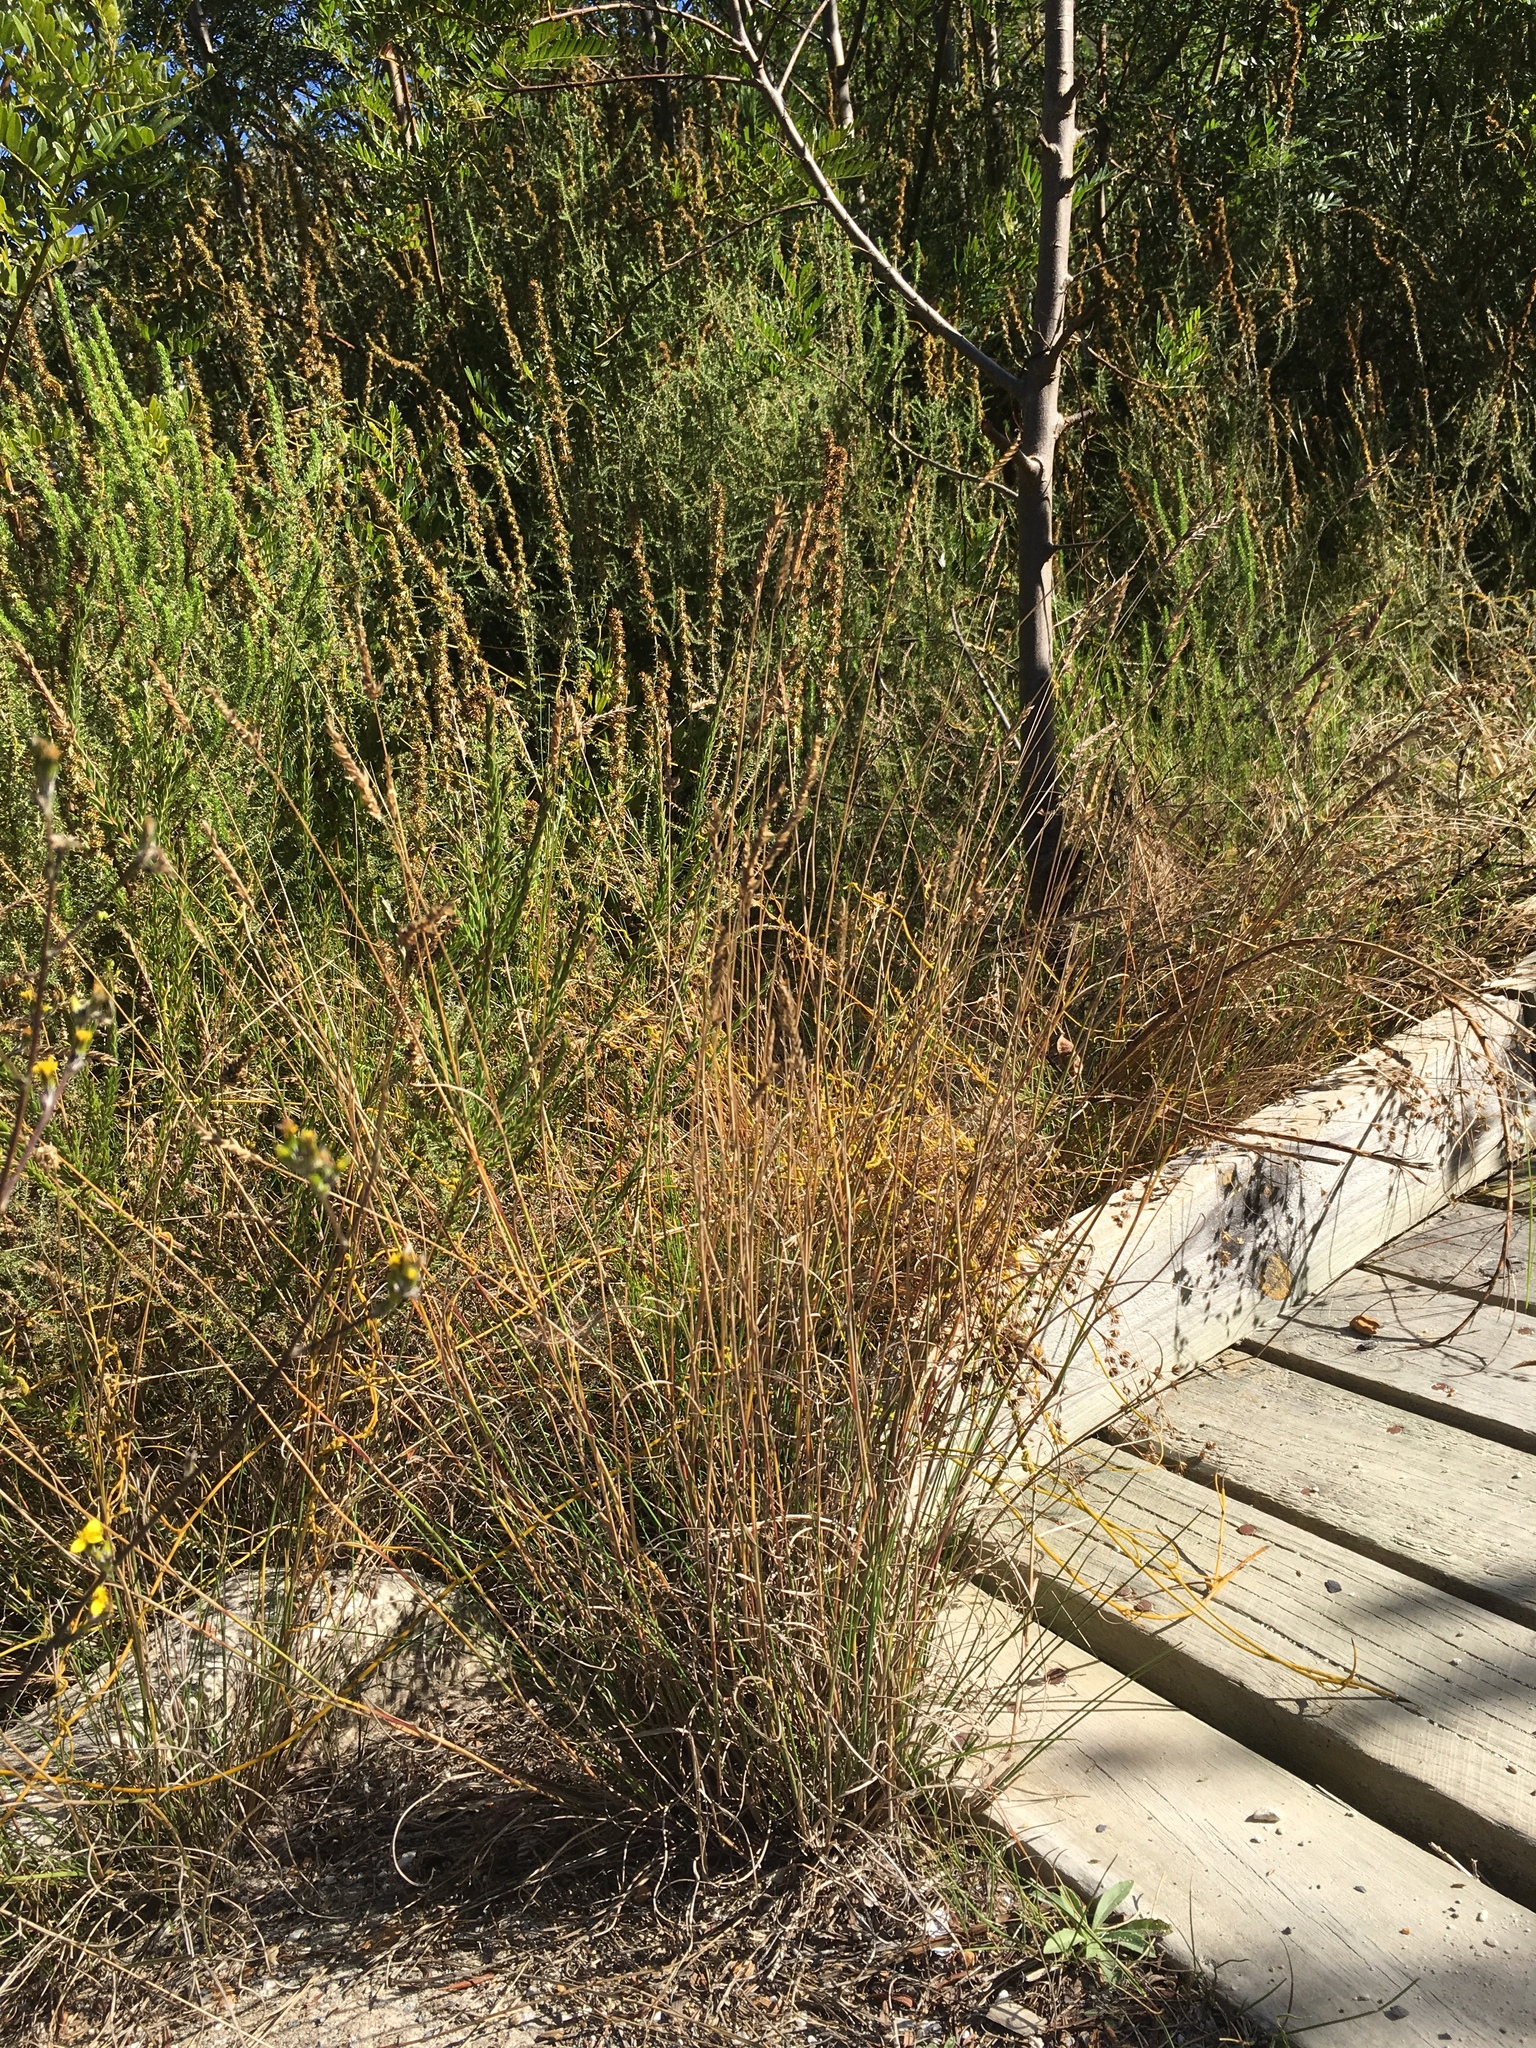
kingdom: Plantae
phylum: Tracheophyta
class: Liliopsida
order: Poales
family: Poaceae
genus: Tribolium
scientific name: Tribolium uniolae
